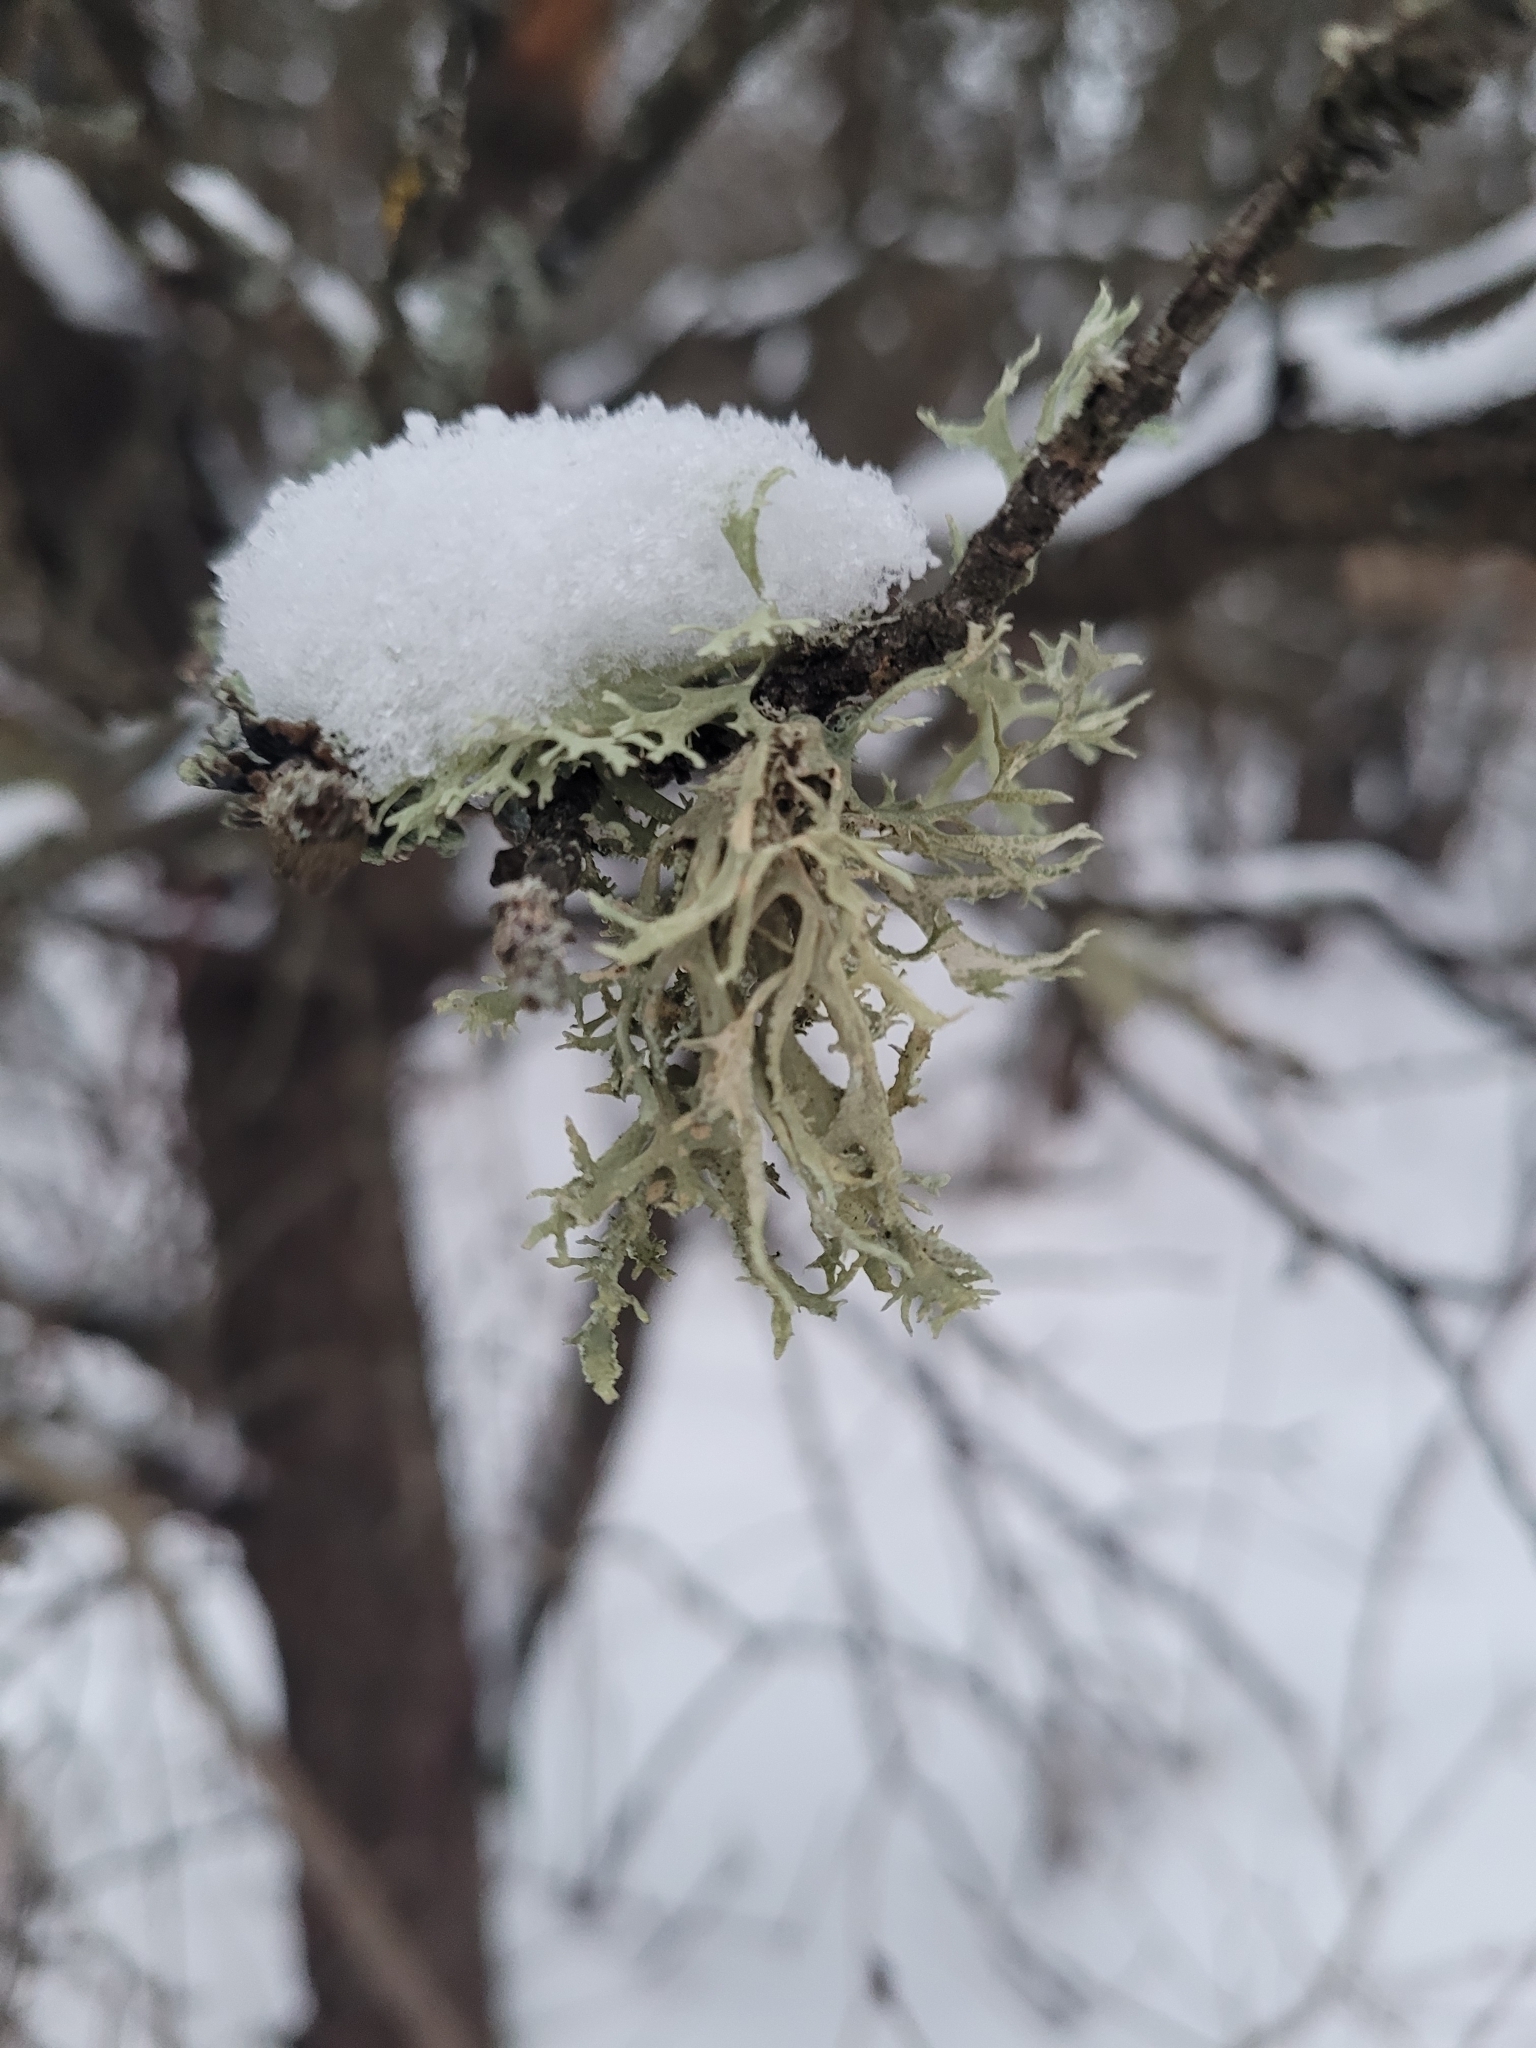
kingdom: Fungi
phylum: Ascomycota
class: Lecanoromycetes
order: Lecanorales
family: Parmeliaceae
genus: Evernia
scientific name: Evernia prunastri
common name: Oak moss
